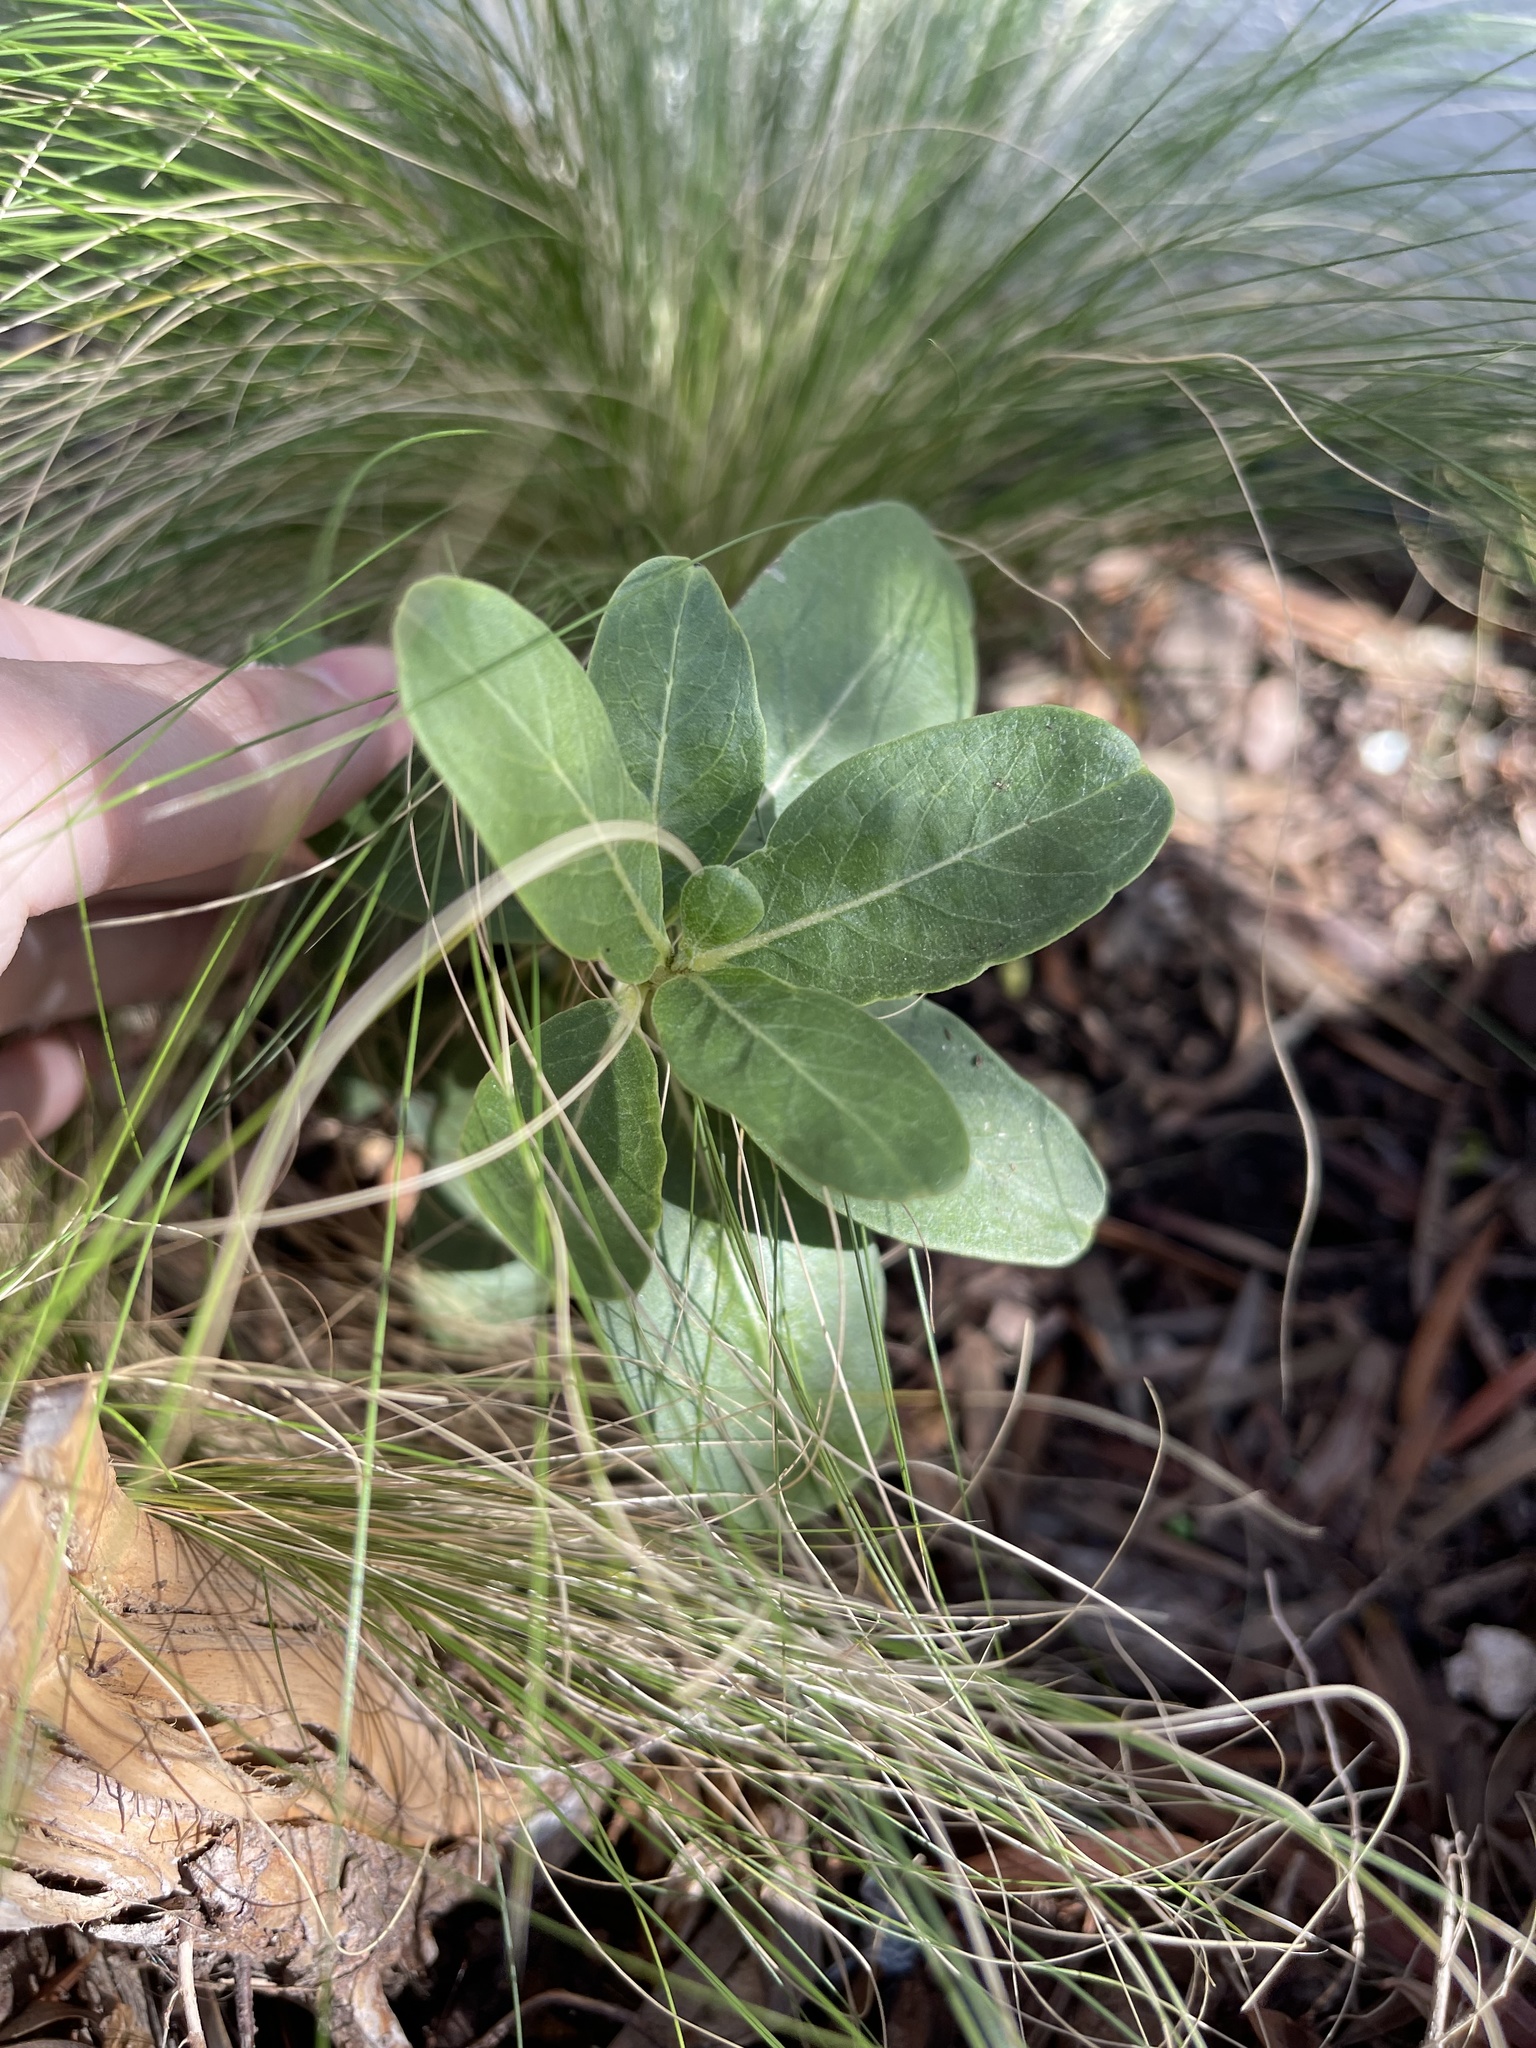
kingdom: Plantae
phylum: Tracheophyta
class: Magnoliopsida
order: Gentianales
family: Apocynaceae
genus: Asclepias
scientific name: Asclepias viridis
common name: Antelope-horns
